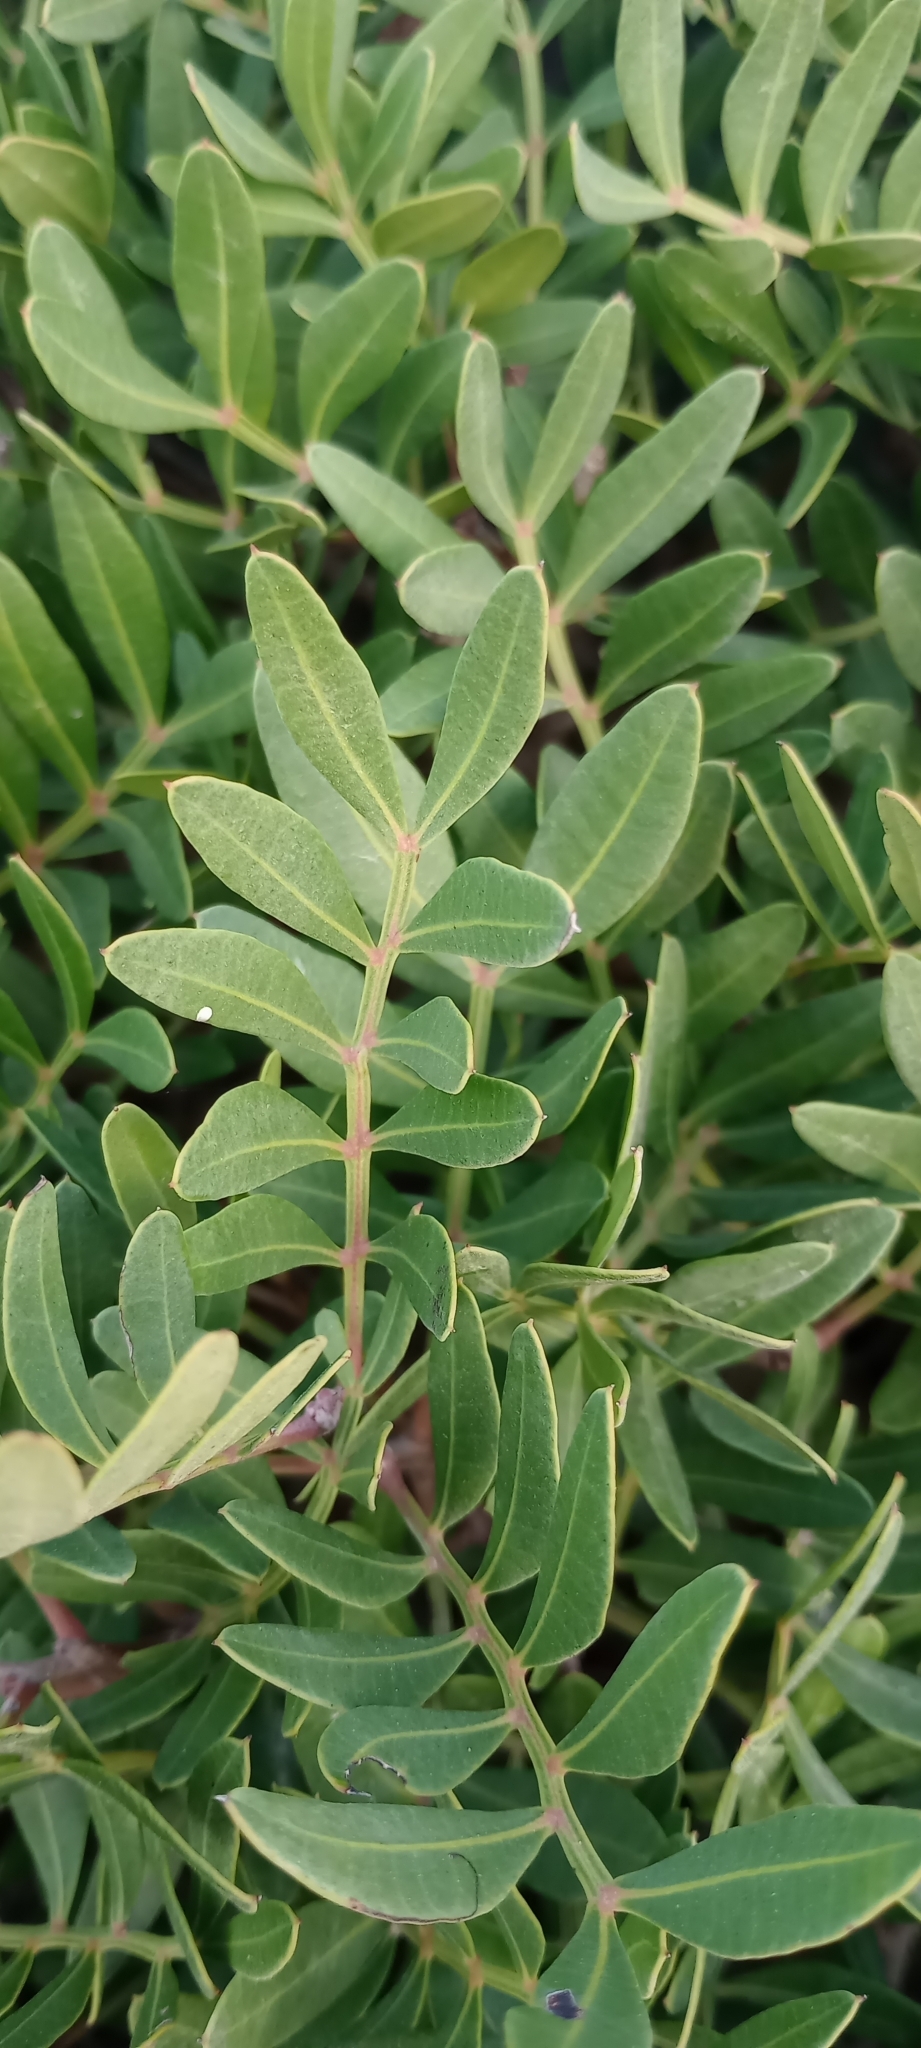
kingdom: Plantae
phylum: Tracheophyta
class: Magnoliopsida
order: Sapindales
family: Anacardiaceae
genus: Pistacia
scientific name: Pistacia lentiscus
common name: Lentisk
